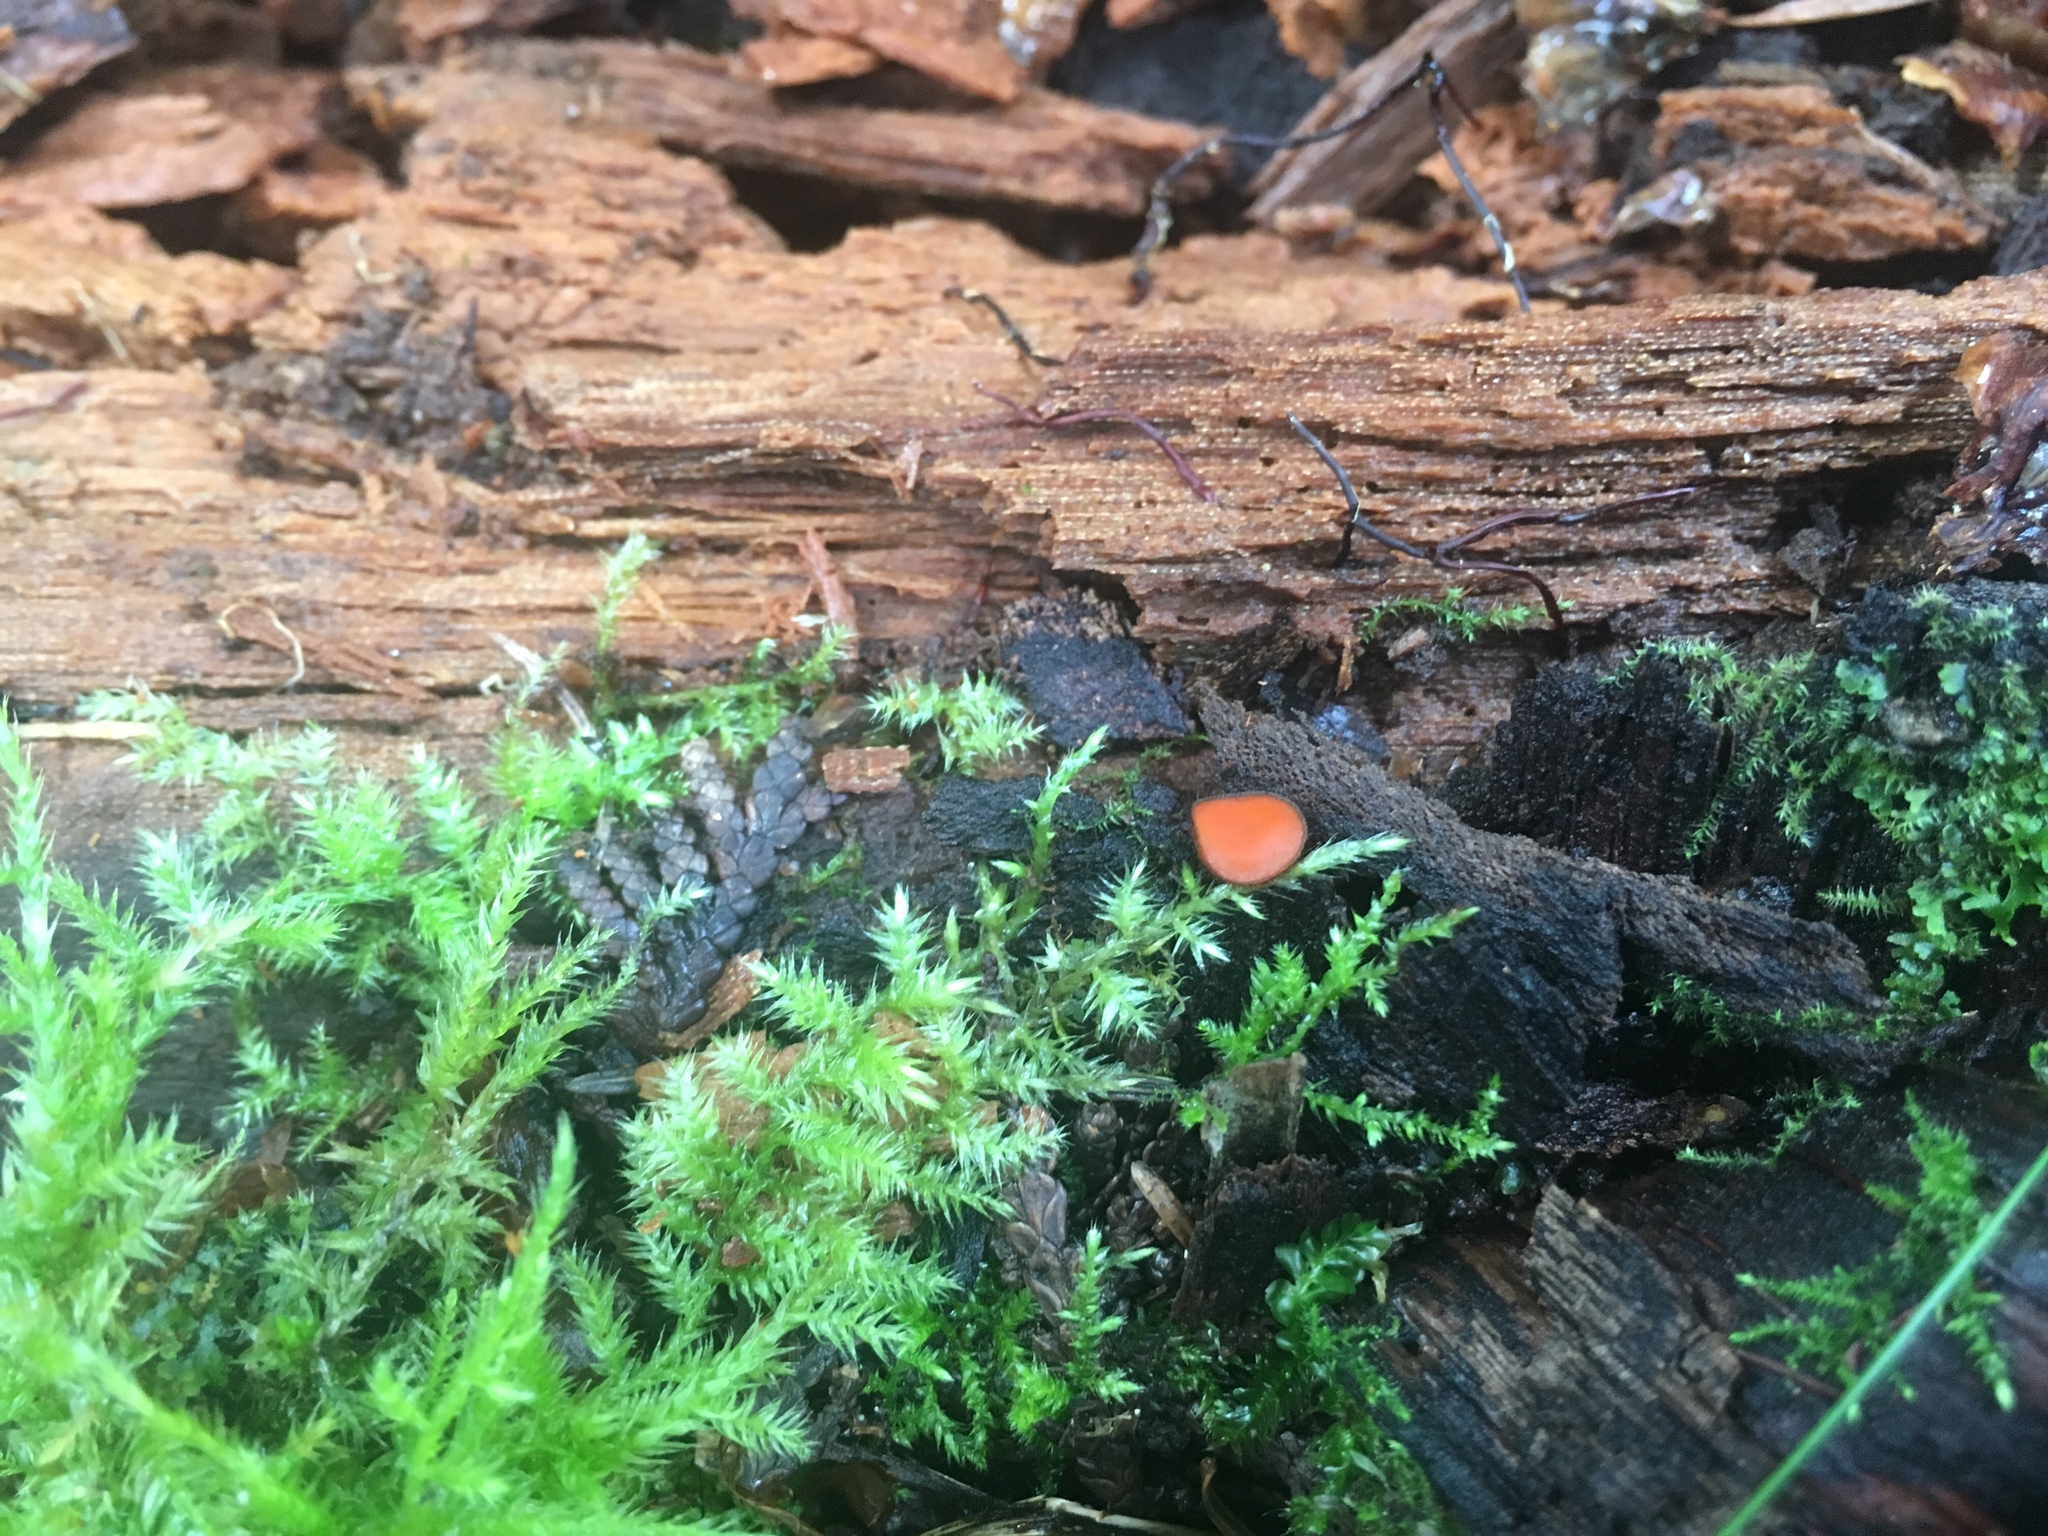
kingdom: Fungi
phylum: Ascomycota
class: Pezizomycetes
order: Pezizales
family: Pyronemataceae
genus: Scutellinia
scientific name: Scutellinia scutellata
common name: Common eyelash
